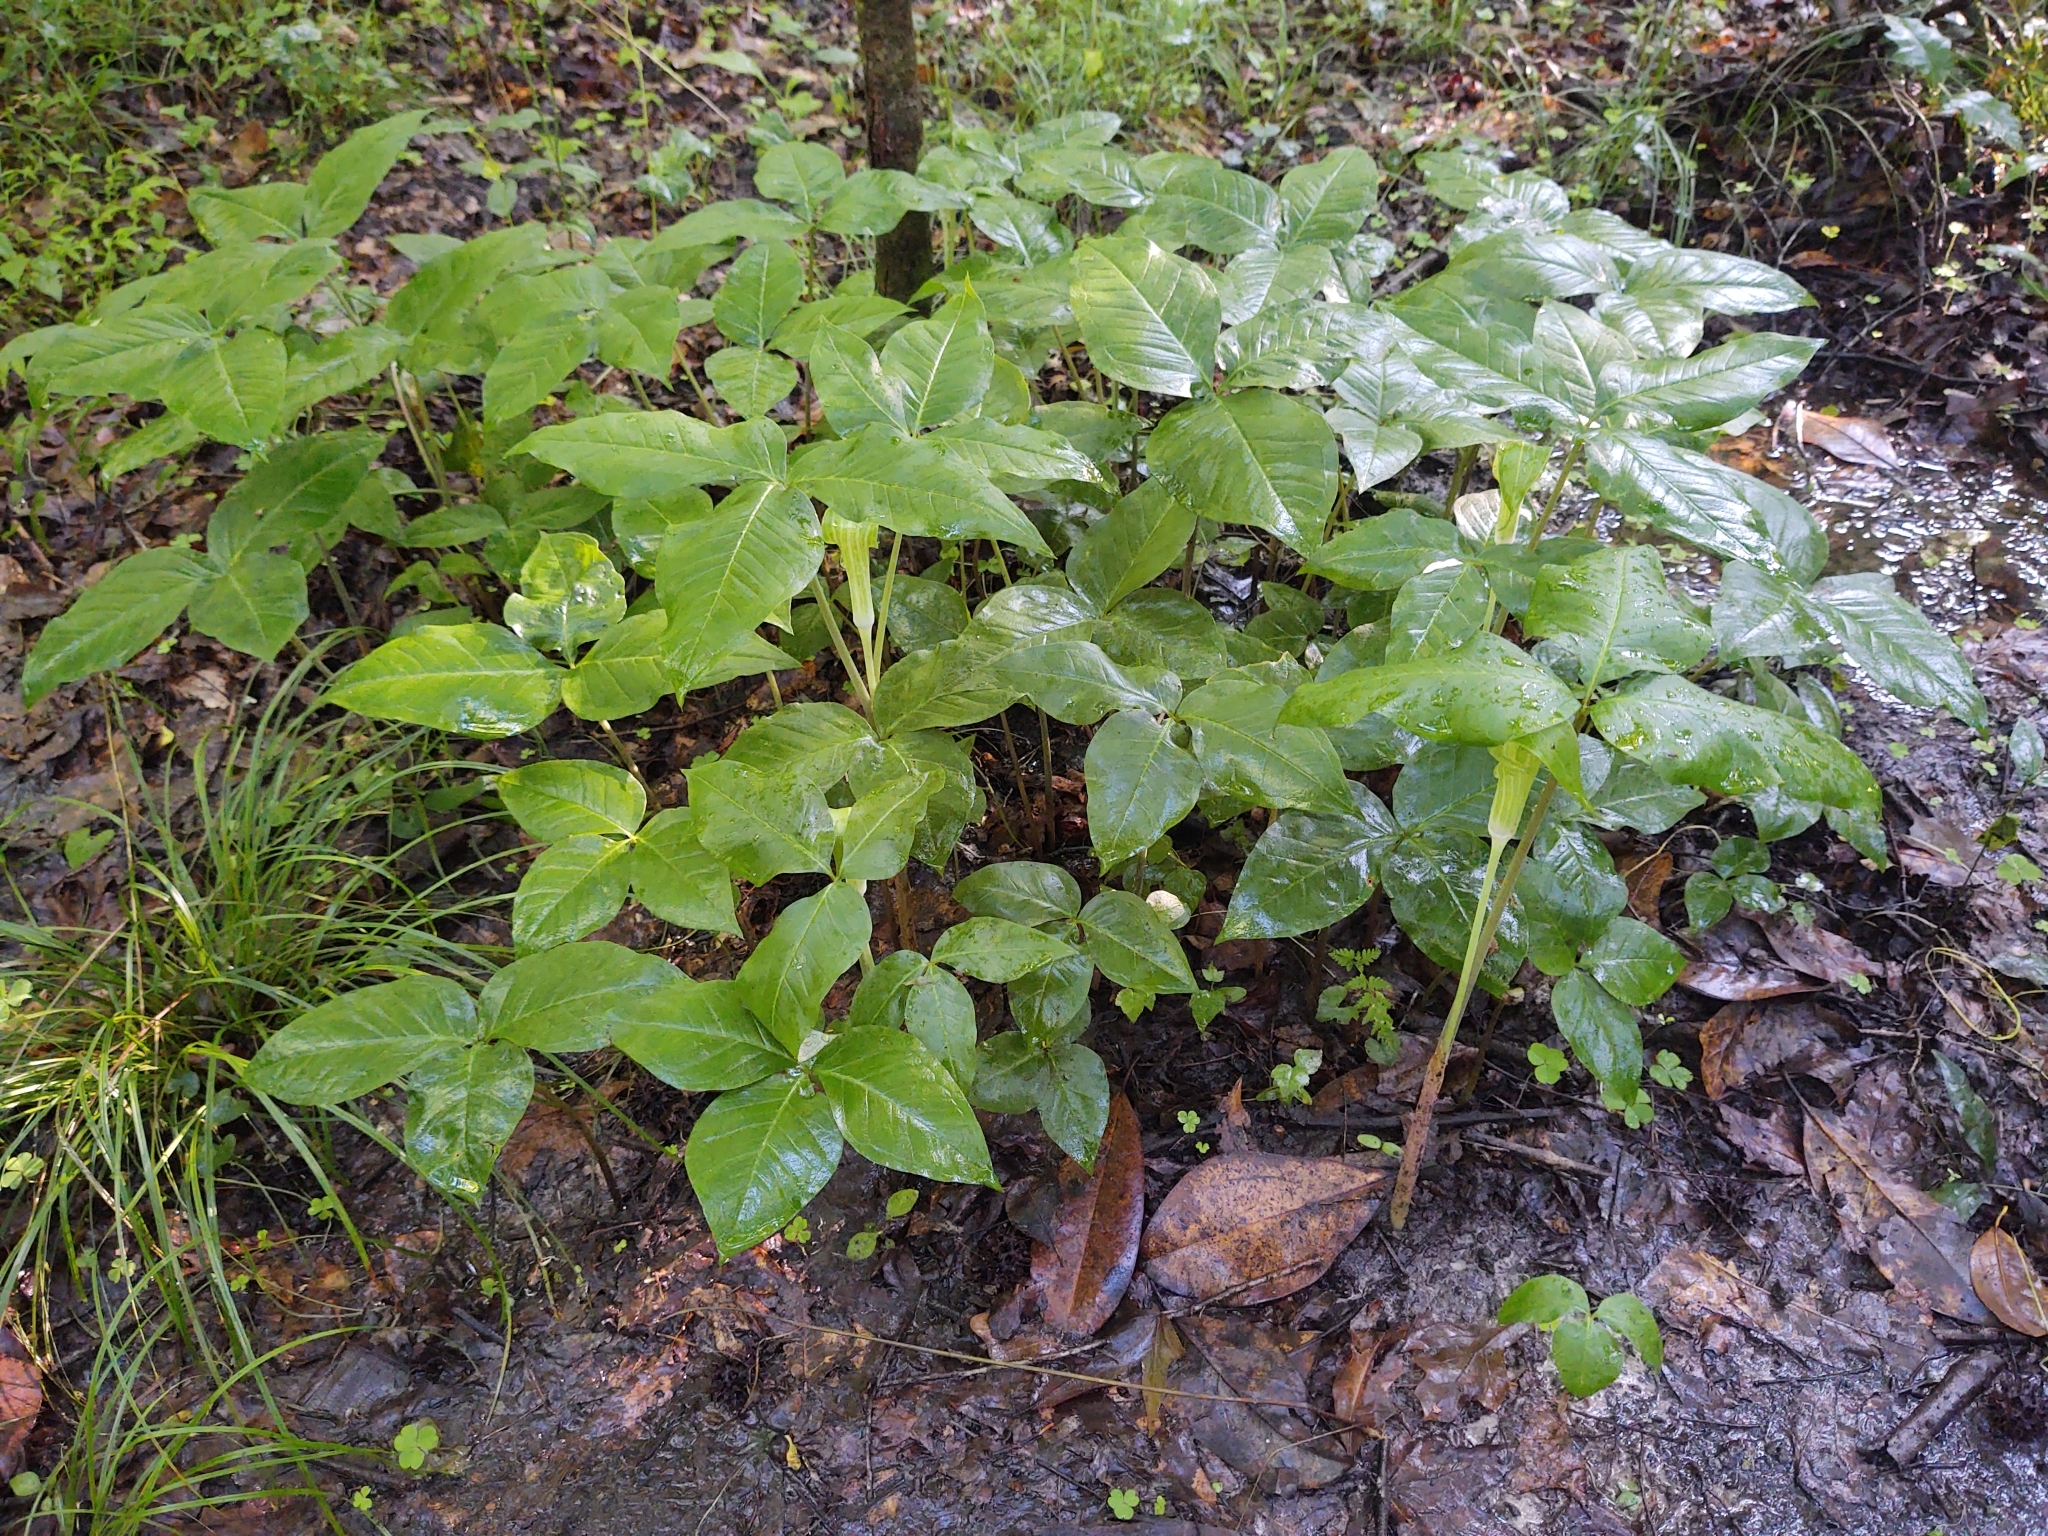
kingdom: Plantae
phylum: Tracheophyta
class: Liliopsida
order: Alismatales
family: Araceae
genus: Arisaema
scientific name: Arisaema acuminatum
